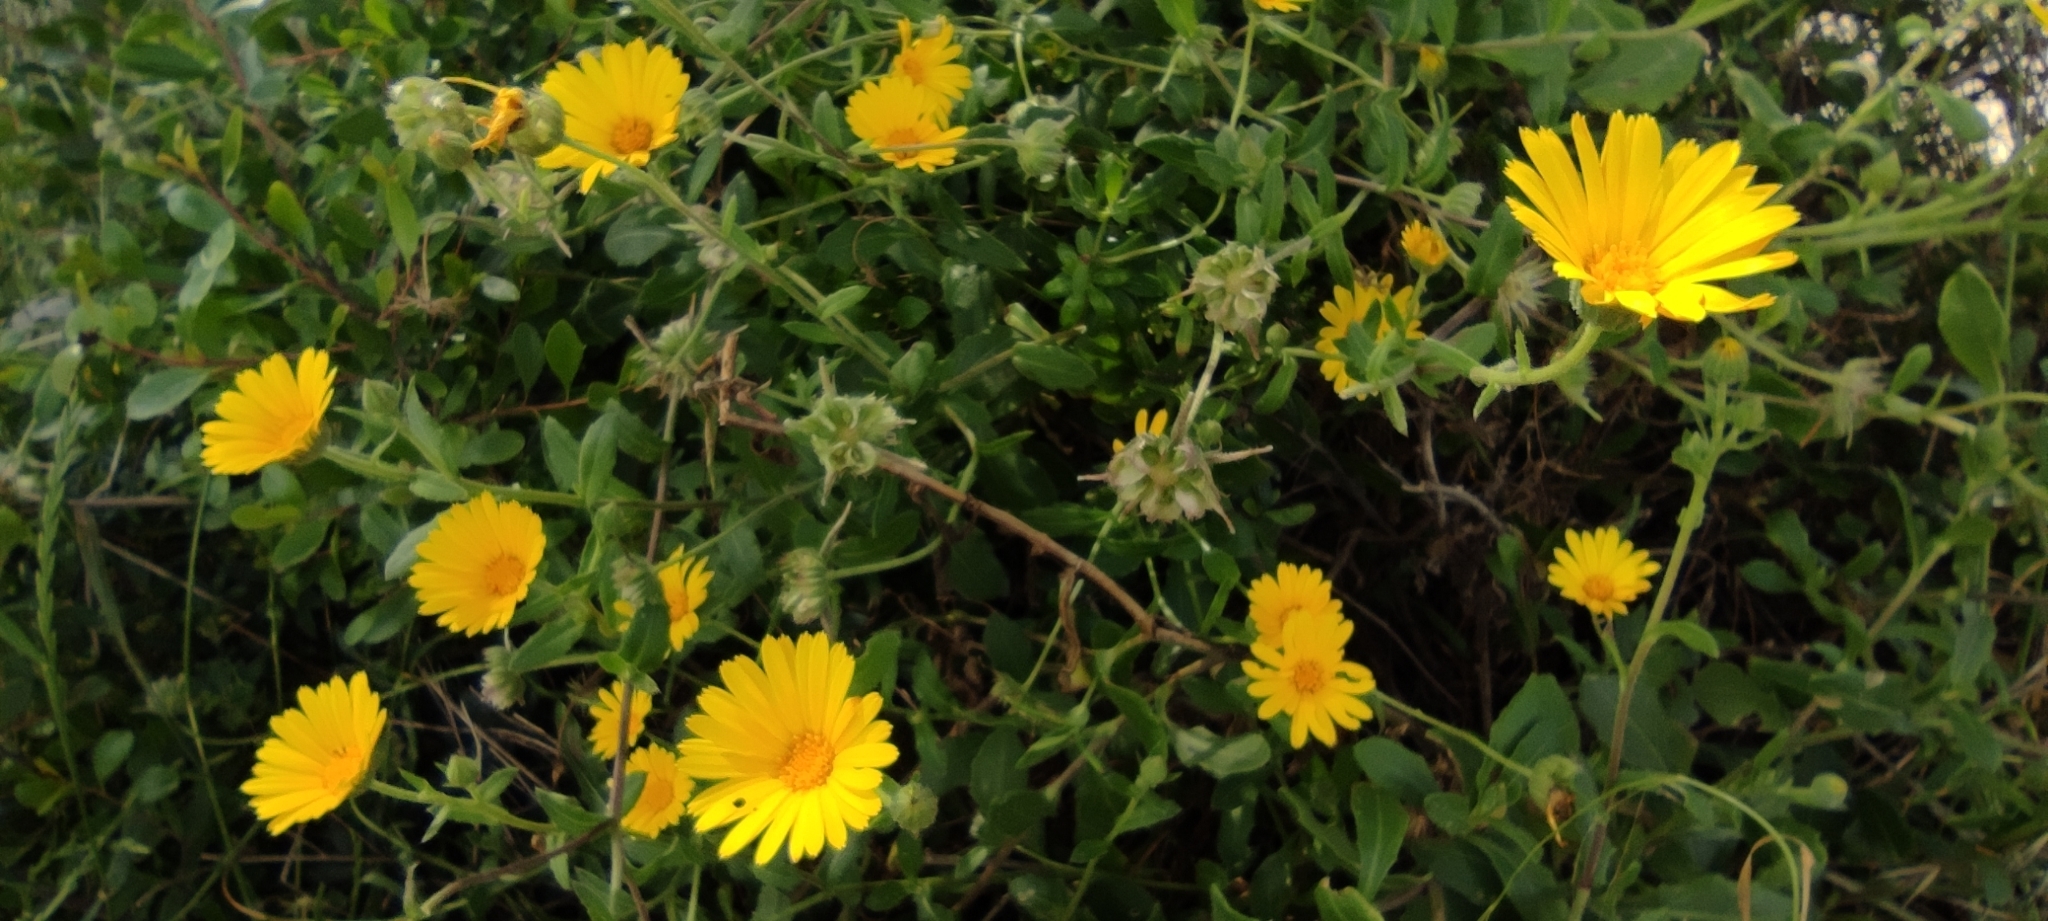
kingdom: Plantae
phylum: Tracheophyta
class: Magnoliopsida
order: Asterales
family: Asteraceae
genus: Calendula
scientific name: Calendula suffruticosa
